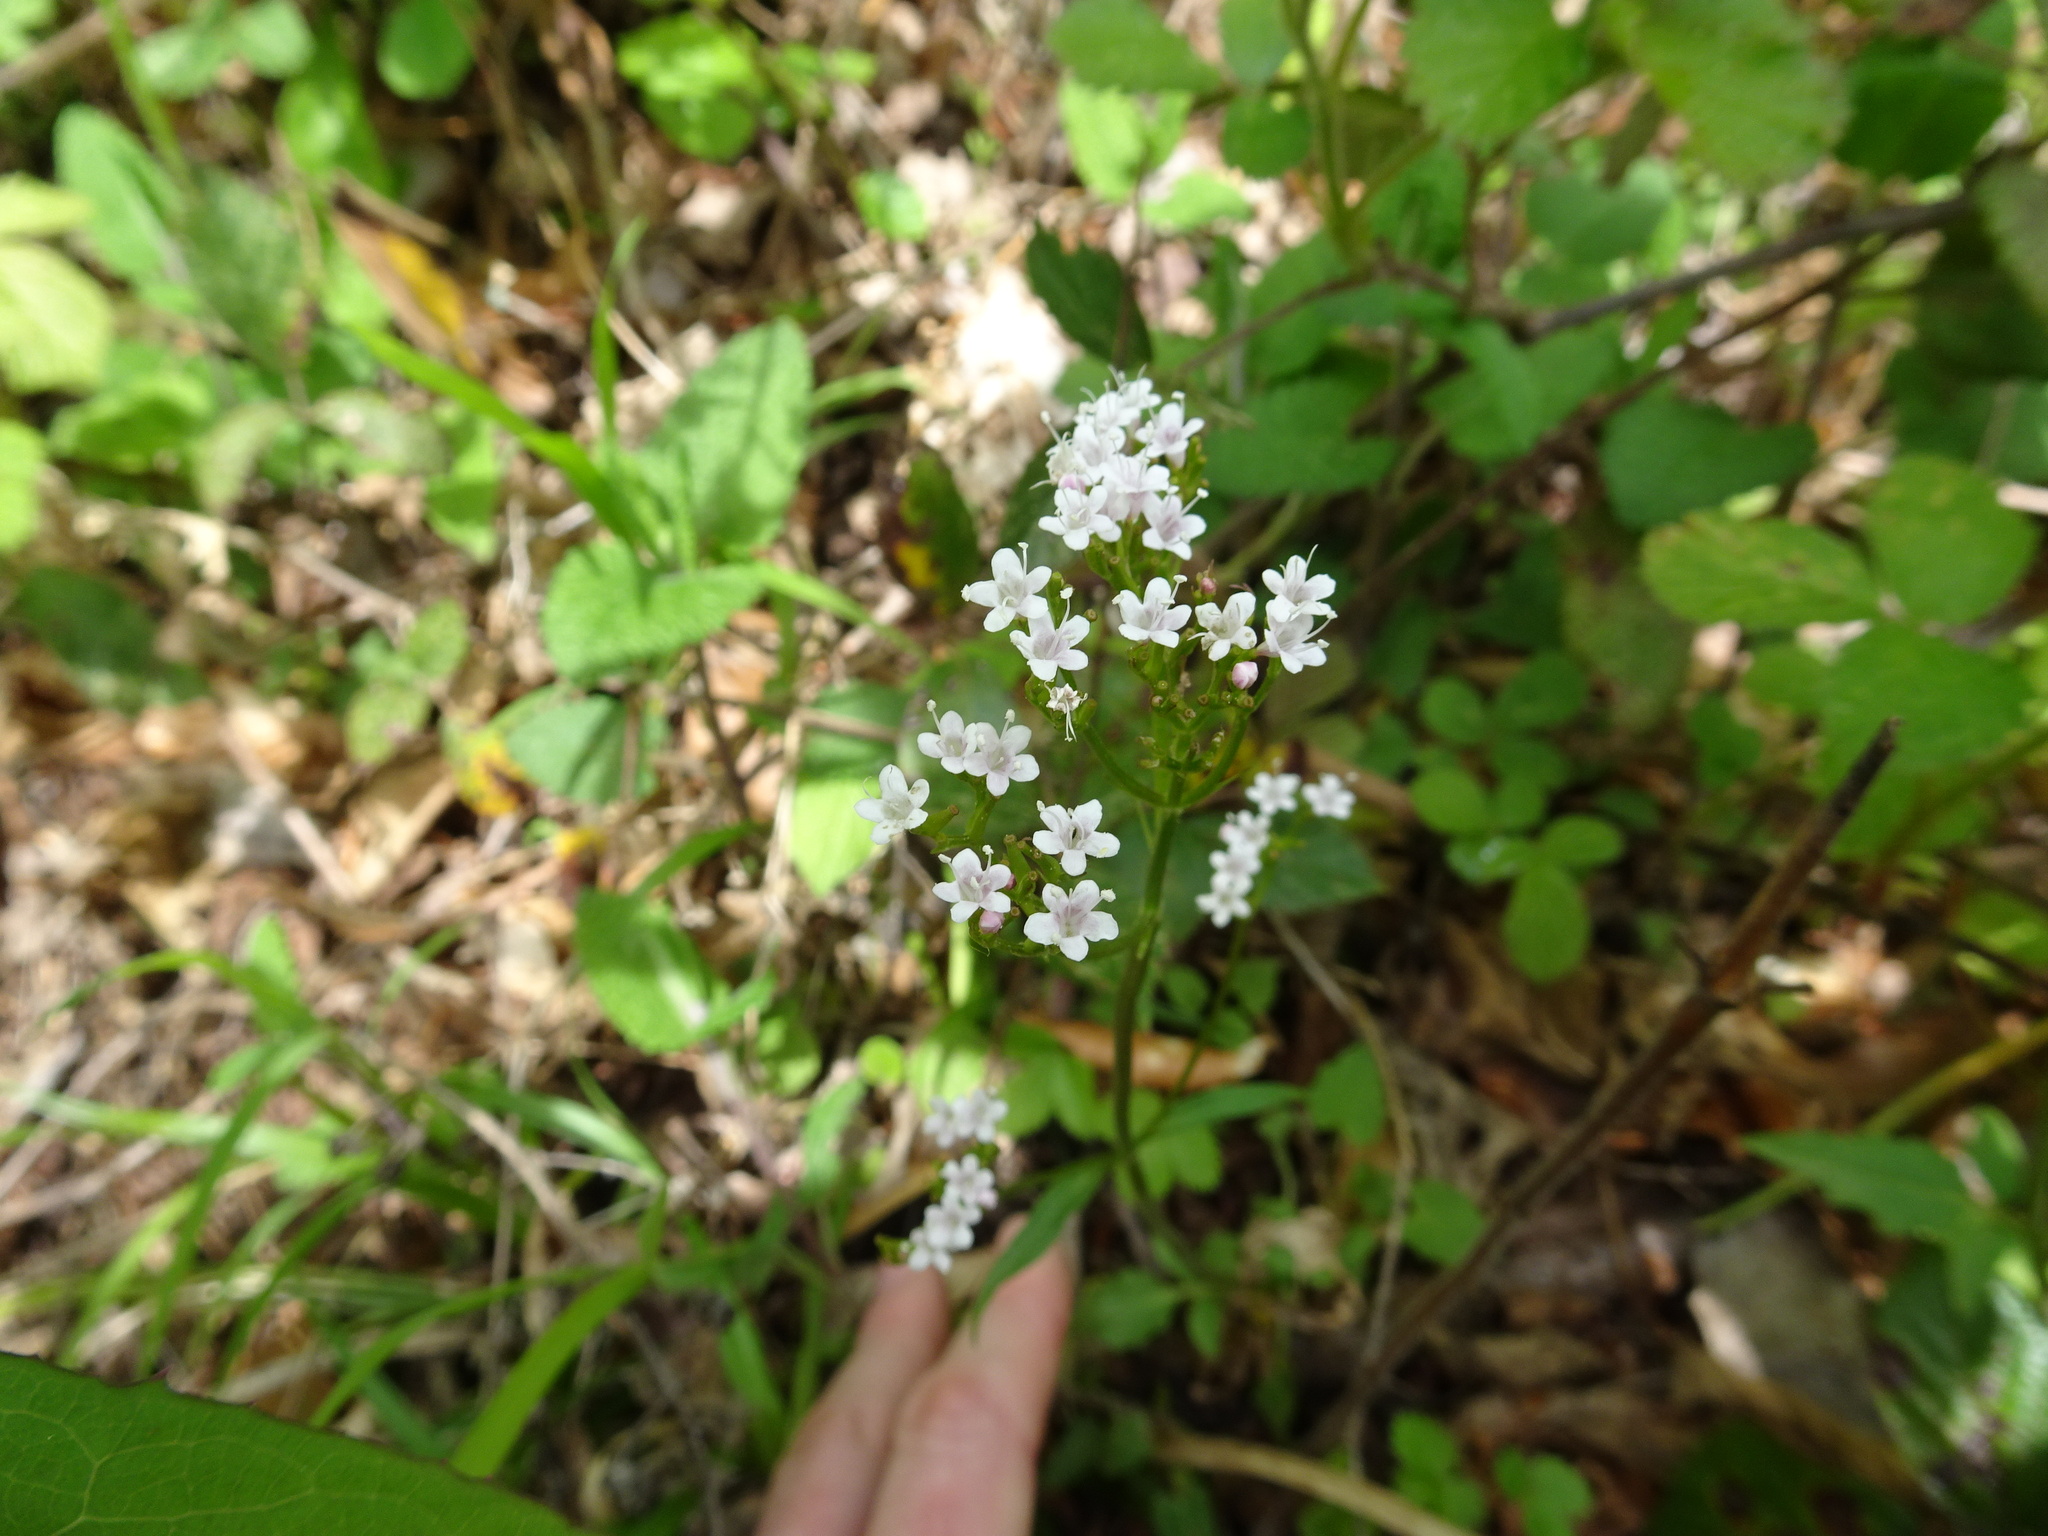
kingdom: Plantae
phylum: Tracheophyta
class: Magnoliopsida
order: Dipsacales
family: Caprifoliaceae
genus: Valeriana
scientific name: Valeriana tripteris
